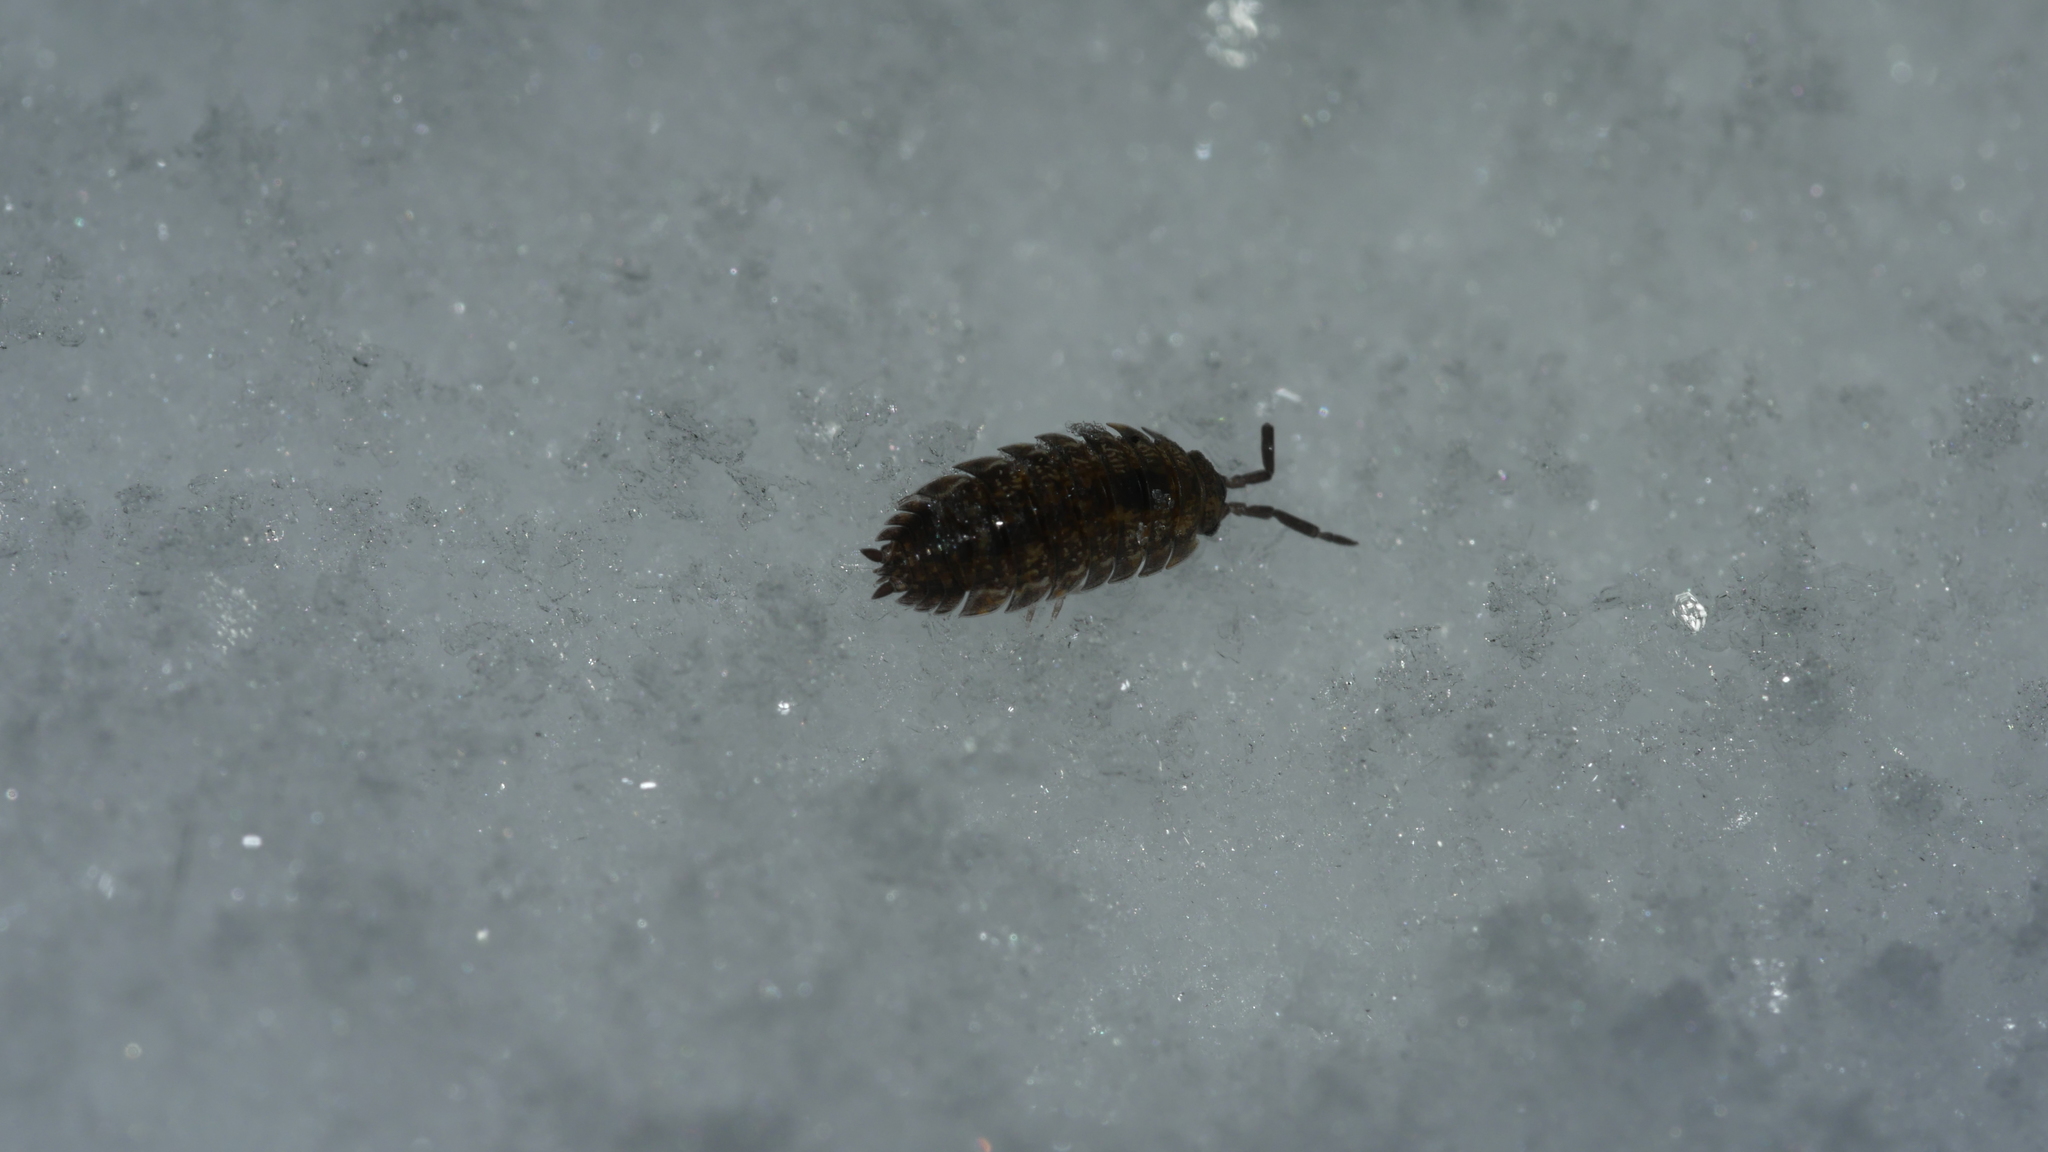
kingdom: Animalia
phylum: Arthropoda
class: Malacostraca
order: Isopoda
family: Porcellionidae
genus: Porcellio
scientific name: Porcellio scaber
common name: Common rough woodlouse
